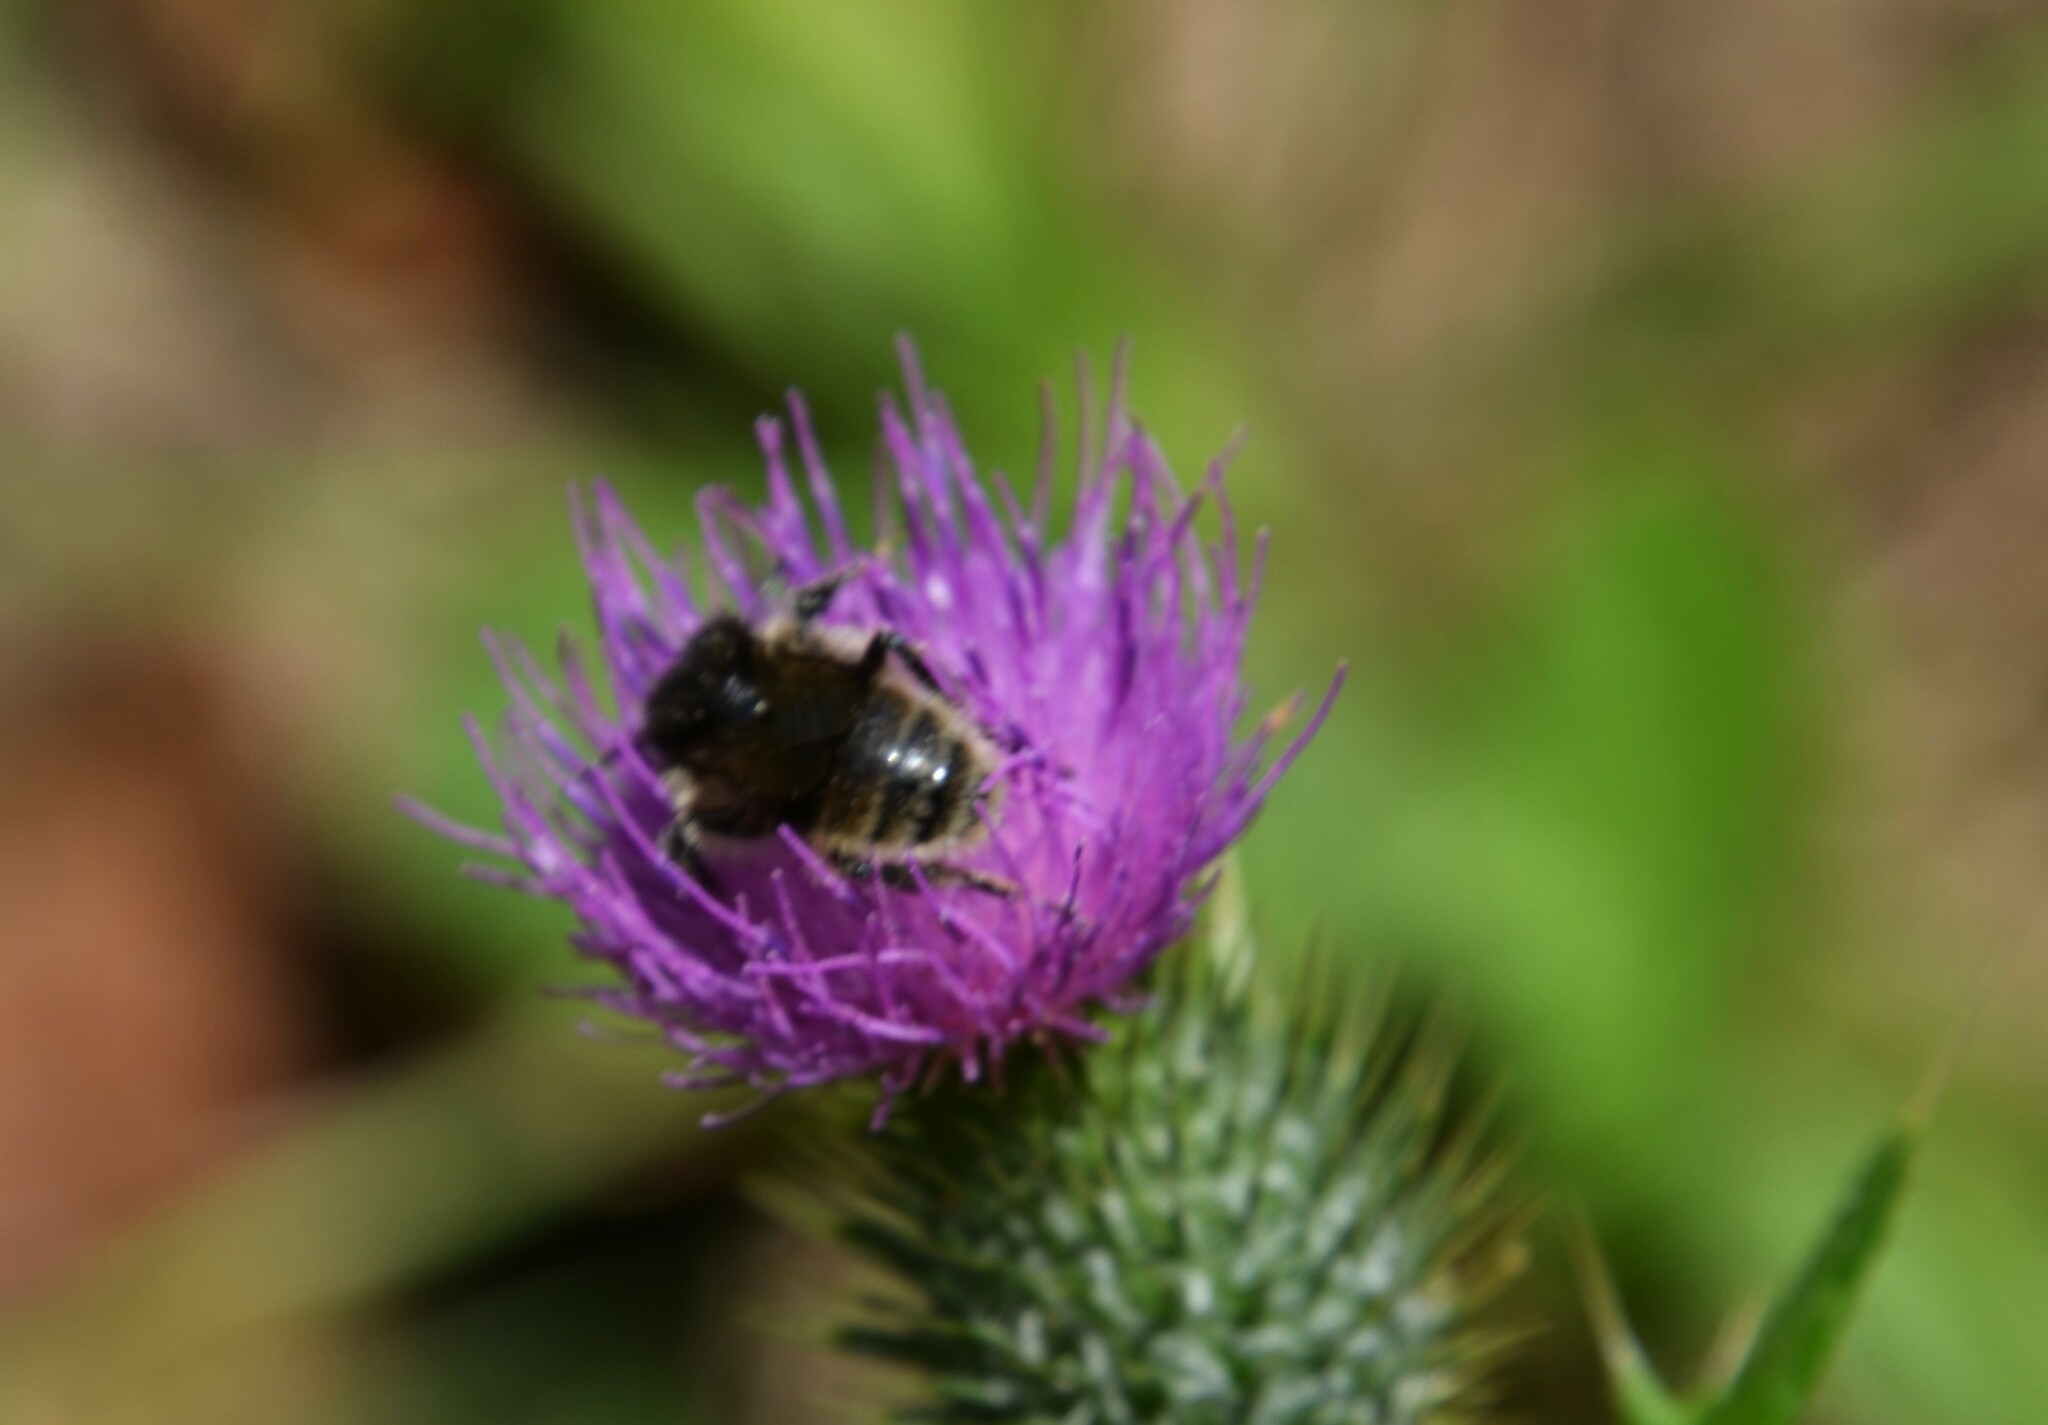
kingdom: Animalia
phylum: Arthropoda
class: Insecta
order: Hymenoptera
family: Apidae
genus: Bombus
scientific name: Bombus humilis
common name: Brown-banded carder-bee
